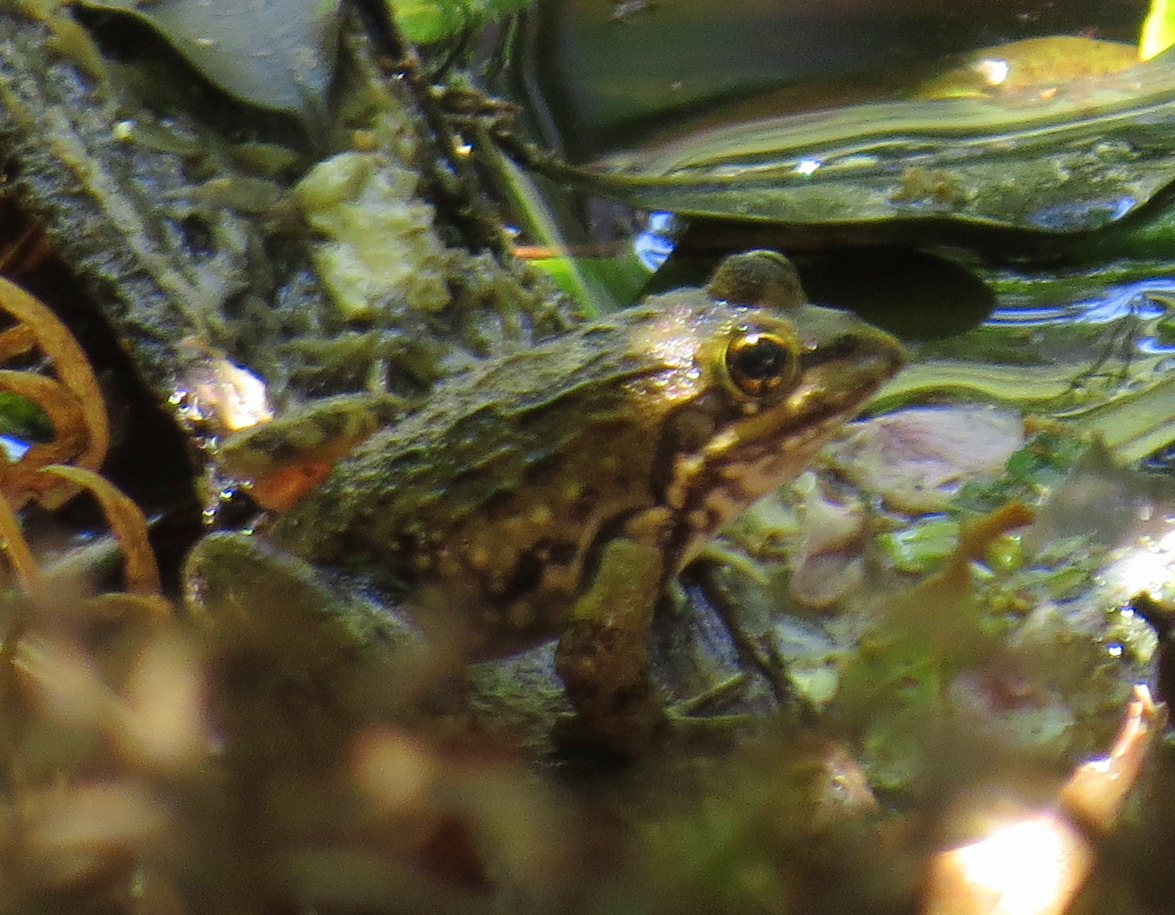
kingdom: Animalia
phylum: Chordata
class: Amphibia
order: Anura
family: Pyxicephalidae
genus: Amietia
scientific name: Amietia fuscigula
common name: Cape rana
